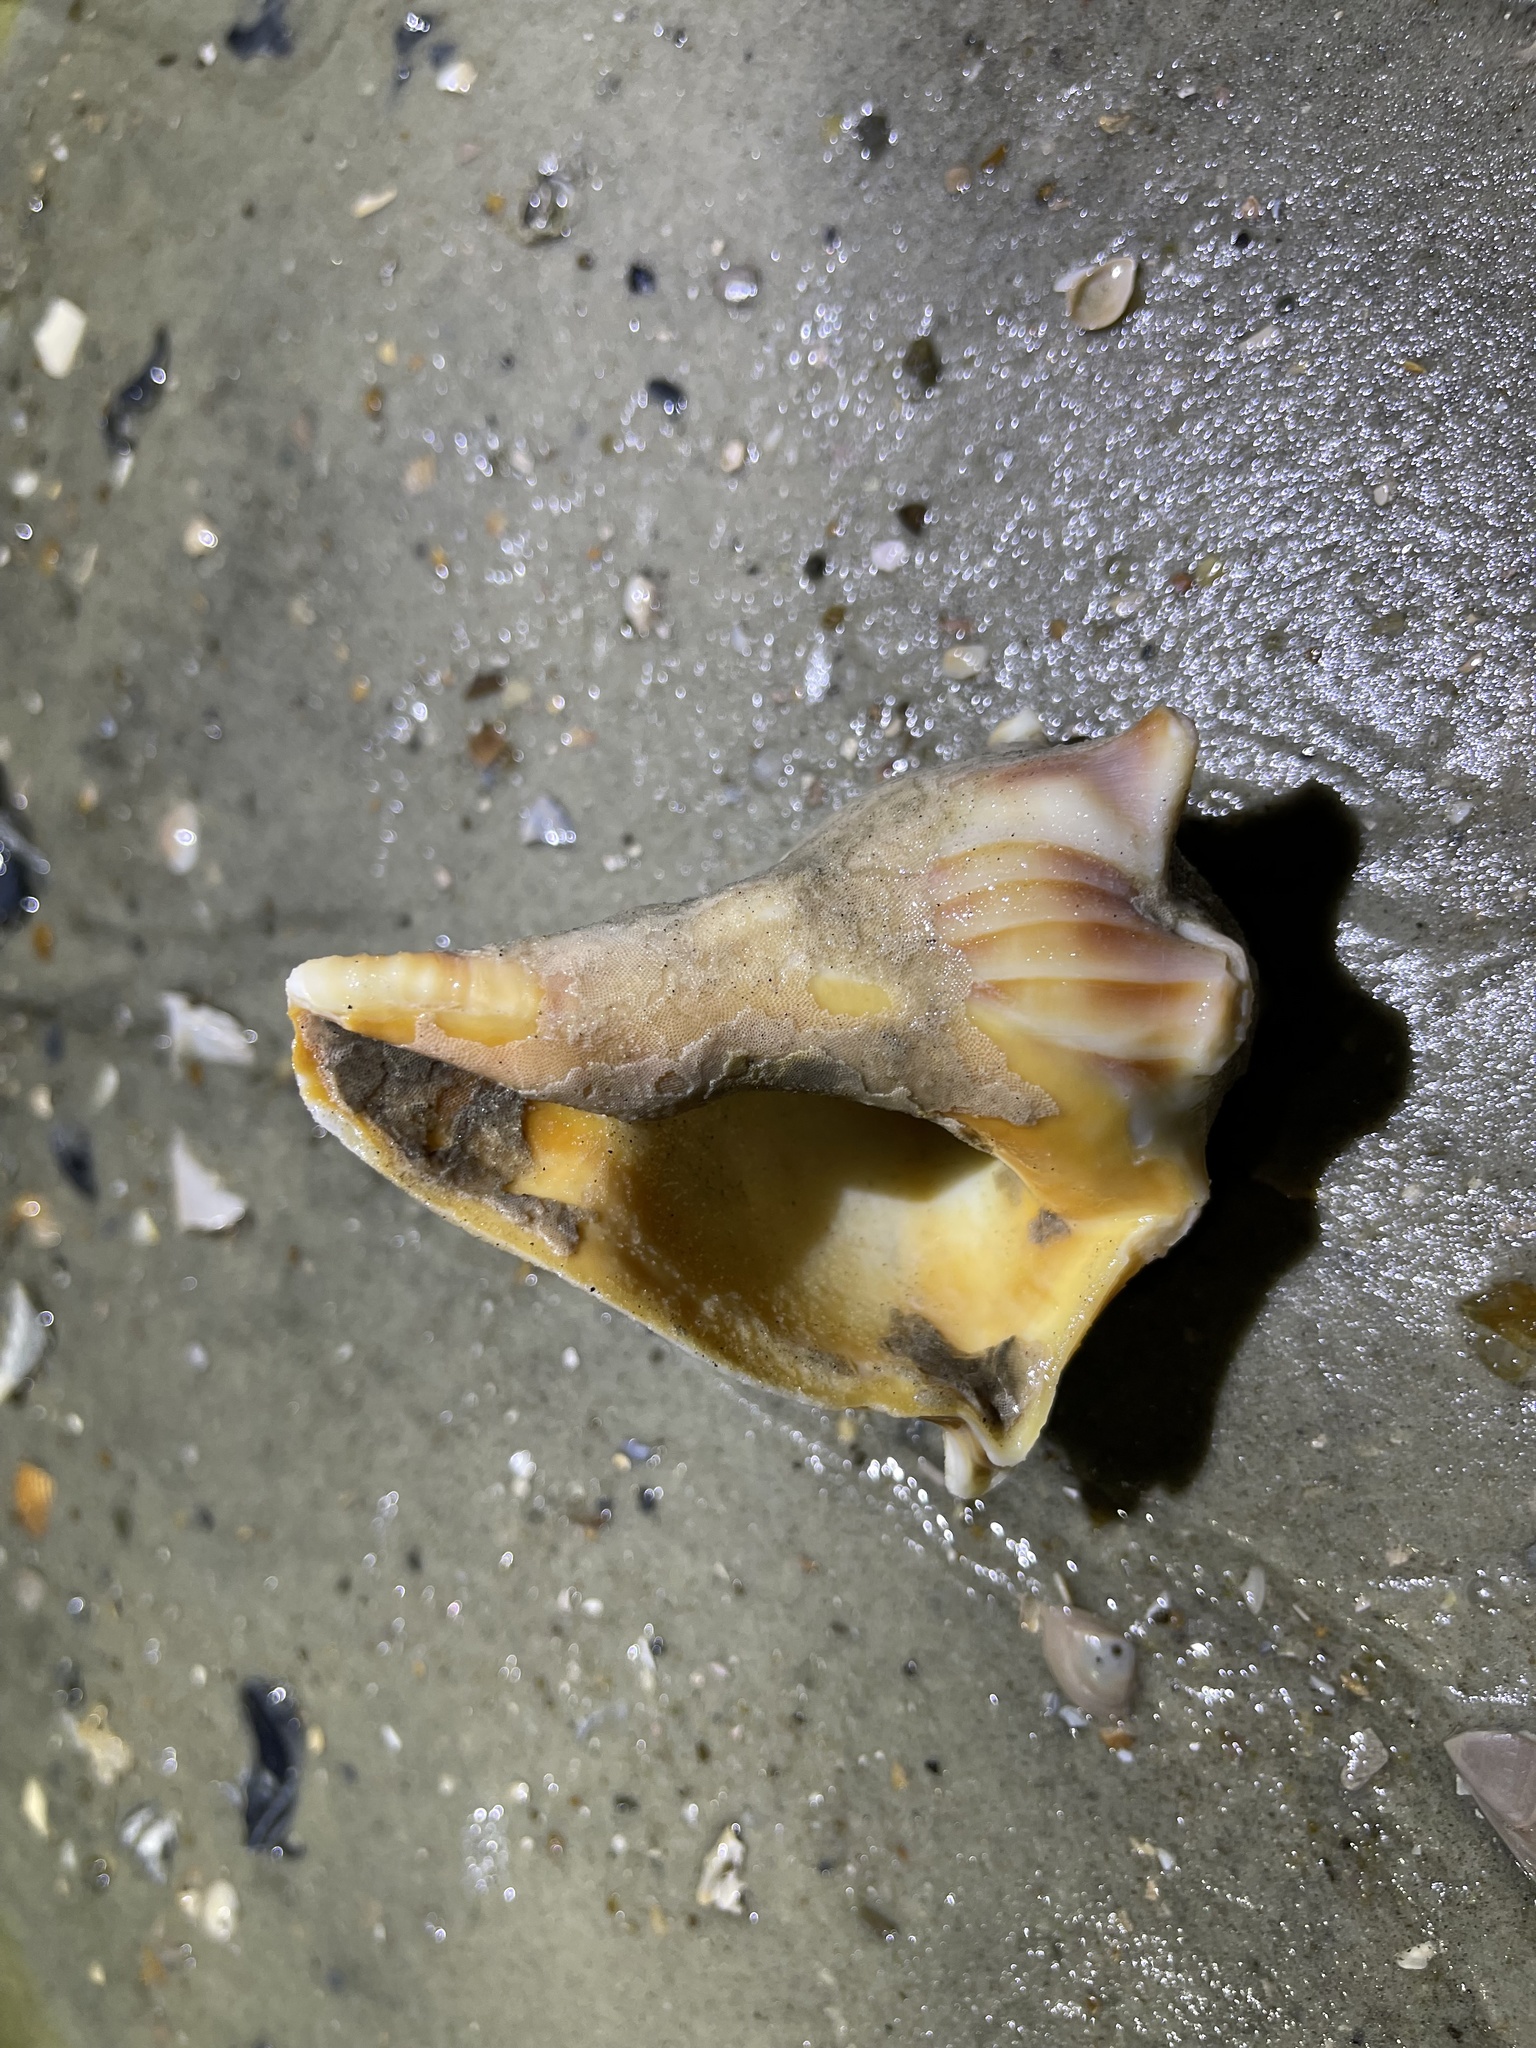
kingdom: Animalia
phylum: Mollusca
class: Gastropoda
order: Neogastropoda
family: Busyconidae
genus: Busycon
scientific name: Busycon carica
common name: Knobbed whelk
